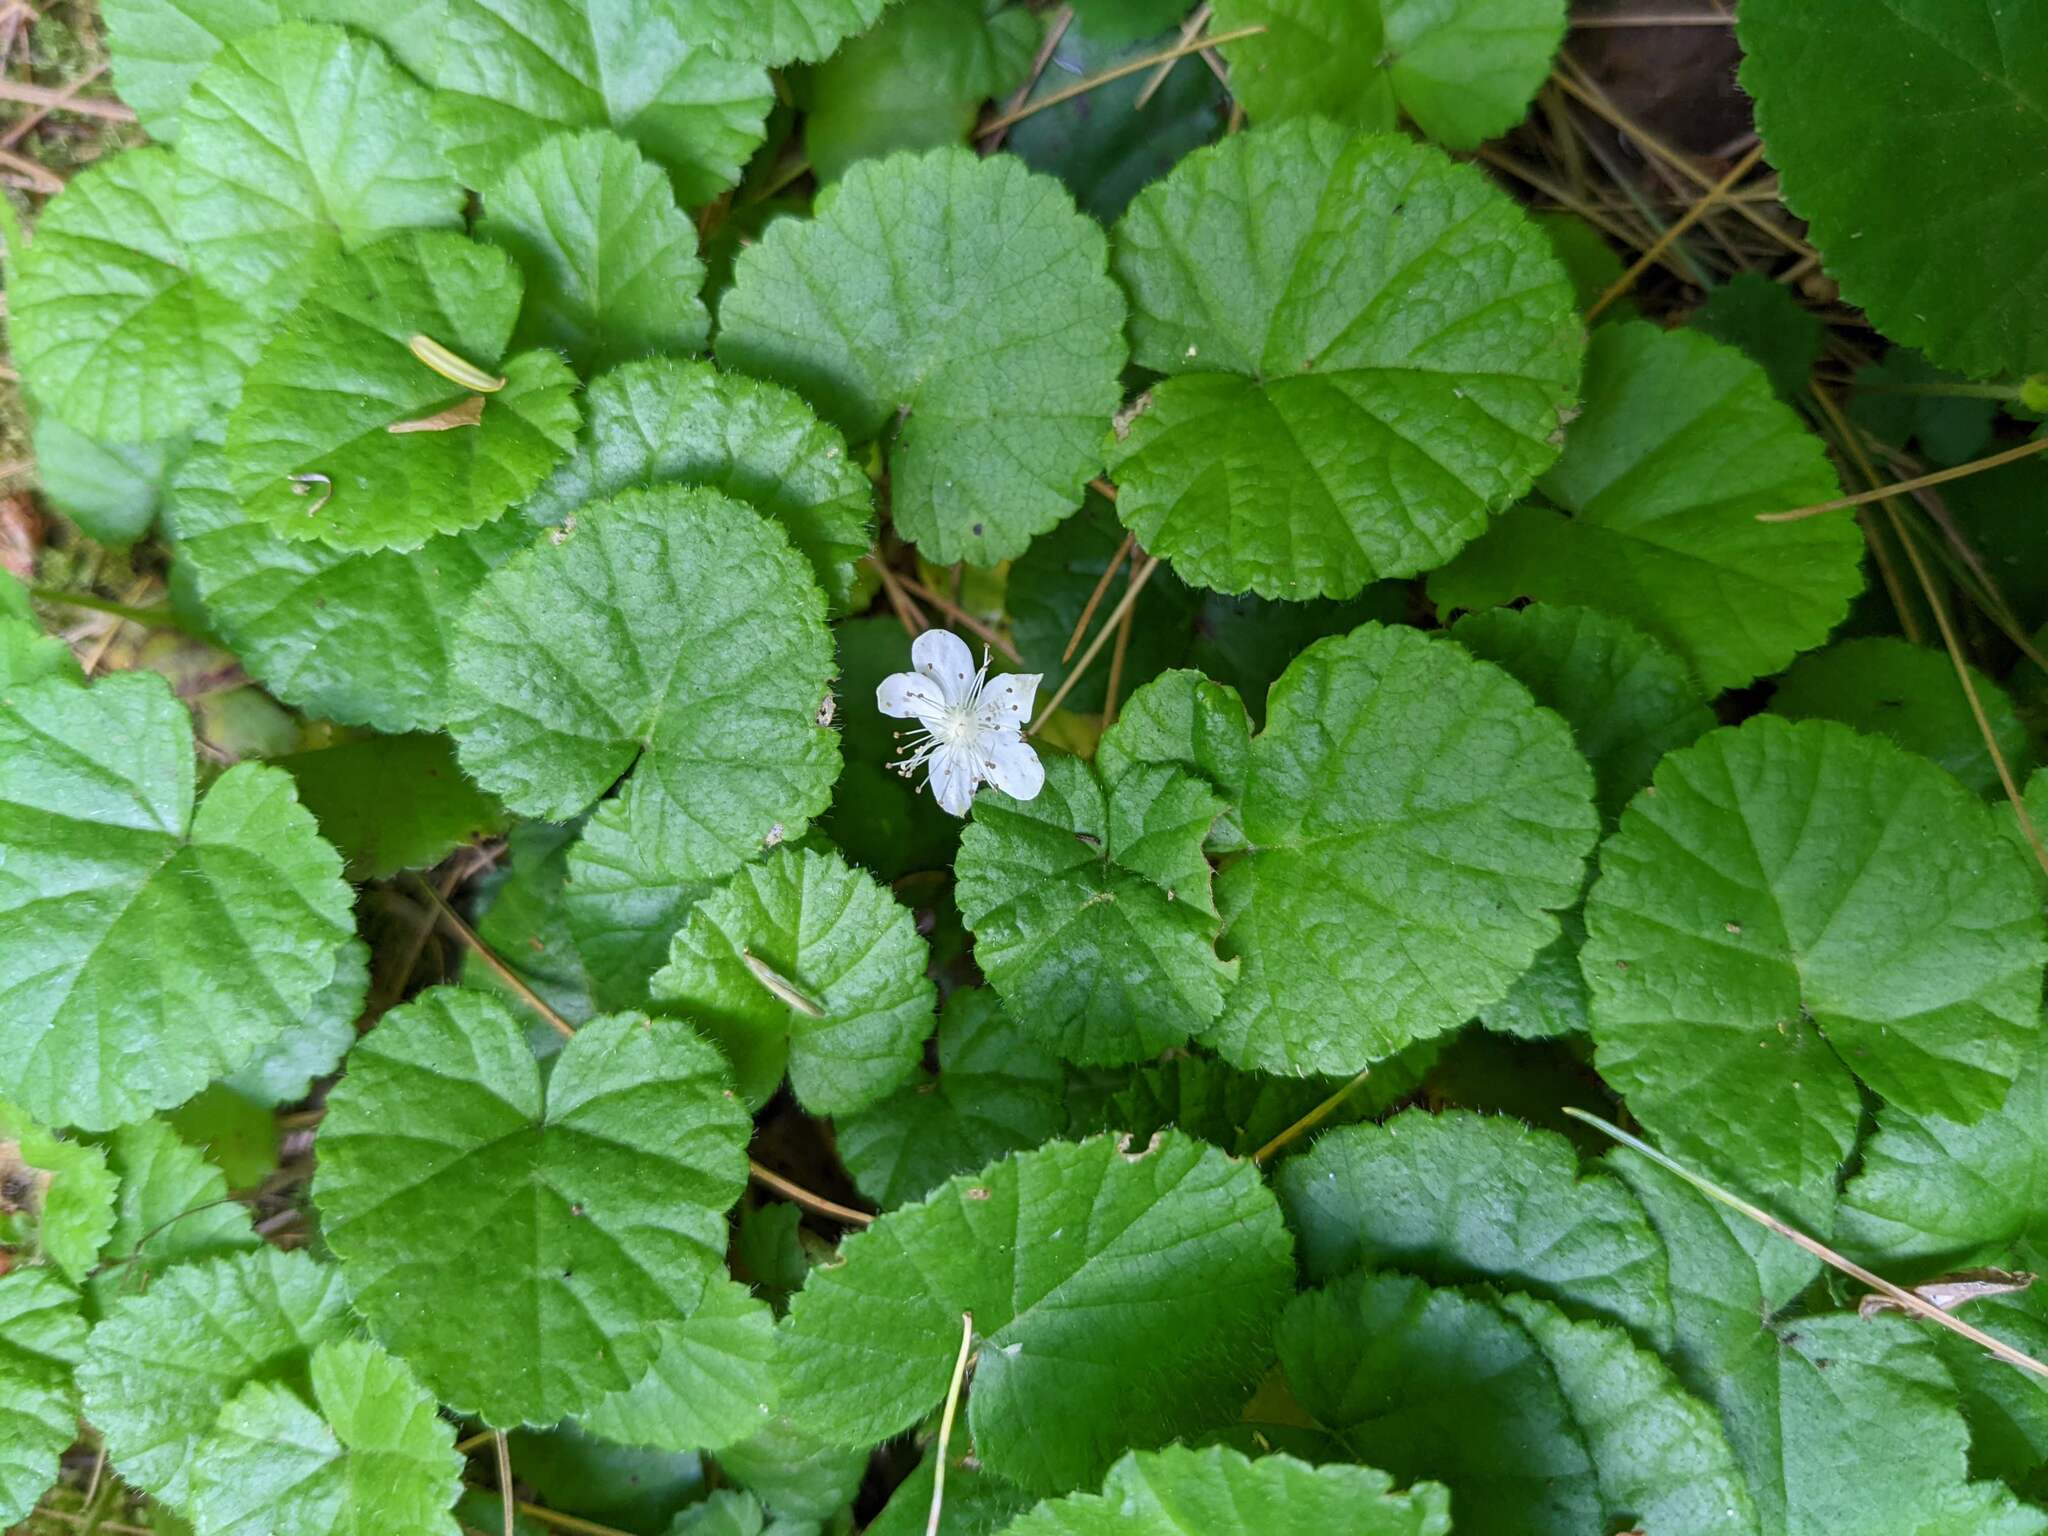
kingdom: Plantae
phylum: Tracheophyta
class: Magnoliopsida
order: Rosales
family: Rosaceae
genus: Dalibarda
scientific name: Dalibarda repens
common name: Dewdrop
